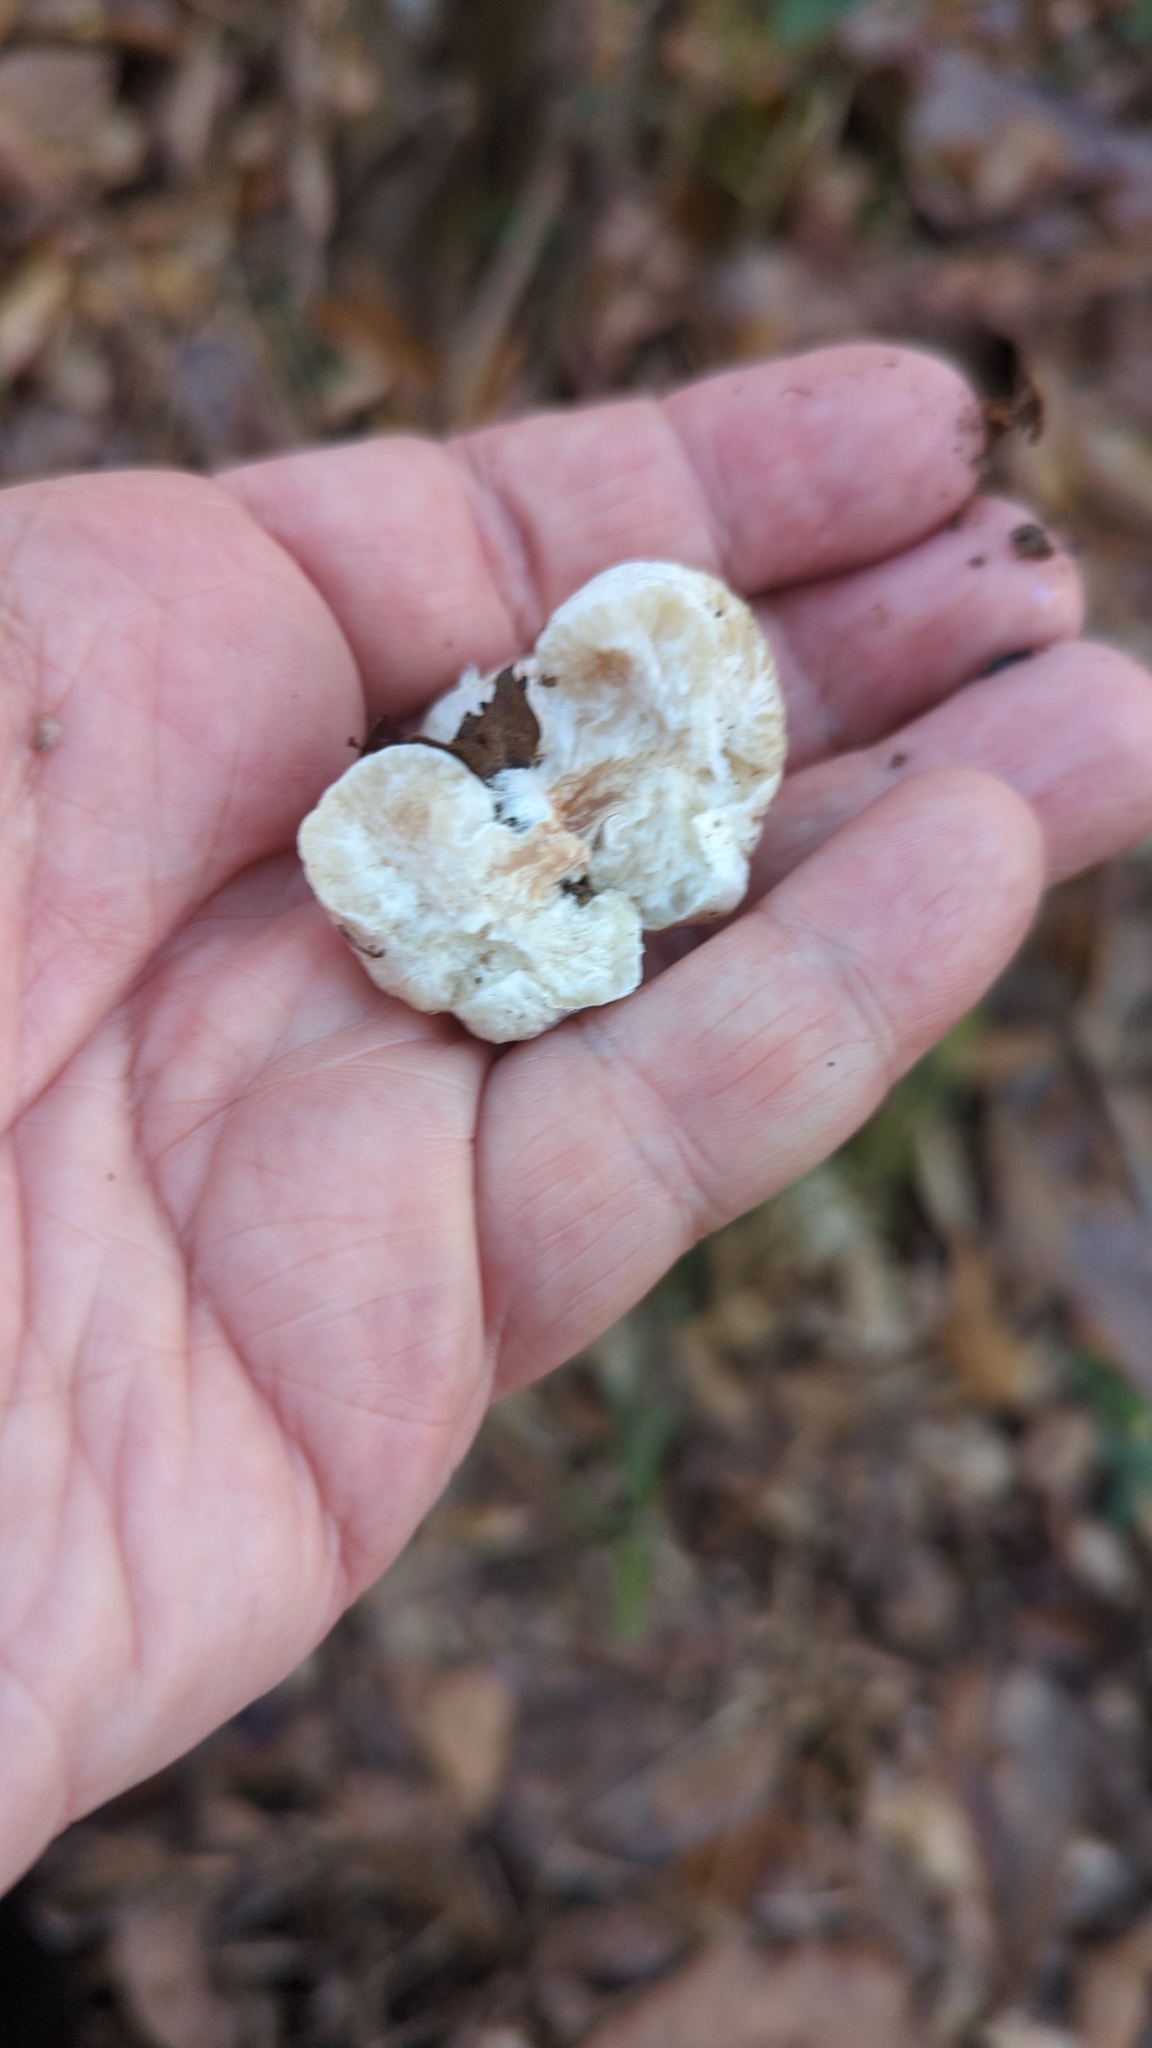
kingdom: Fungi
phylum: Basidiomycota
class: Agaricomycetes
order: Agaricales
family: Entolomataceae
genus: Entoloma
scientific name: Entoloma abortivum
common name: Aborted entoloma
